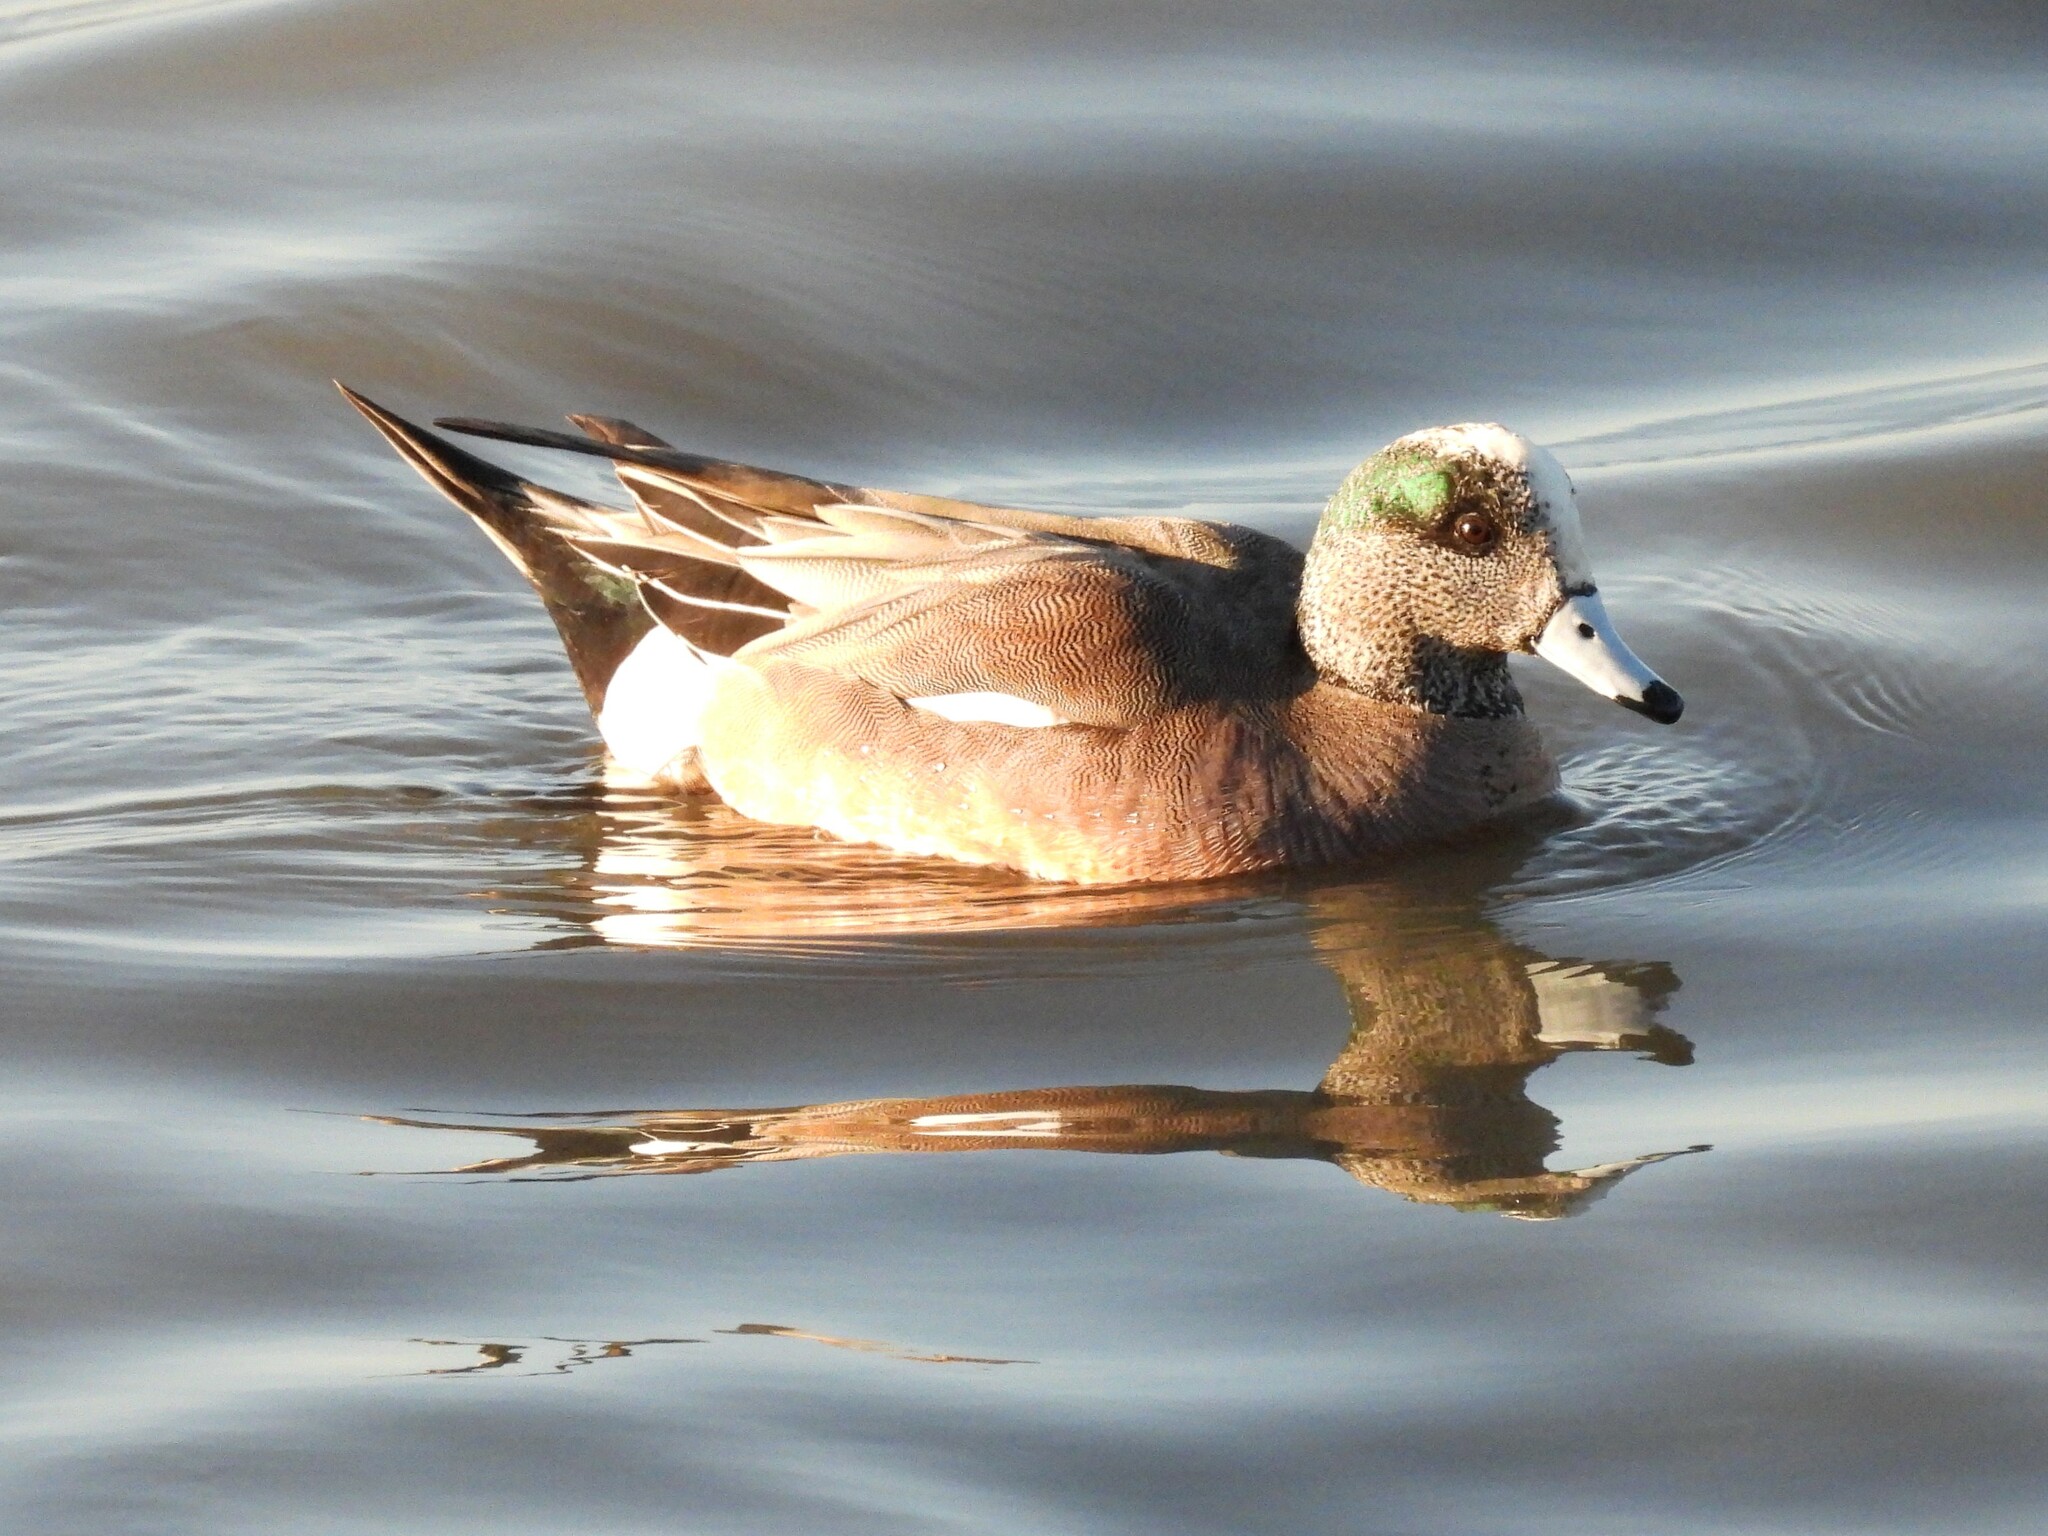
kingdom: Animalia
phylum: Chordata
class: Aves
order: Anseriformes
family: Anatidae
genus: Mareca
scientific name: Mareca americana
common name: American wigeon
